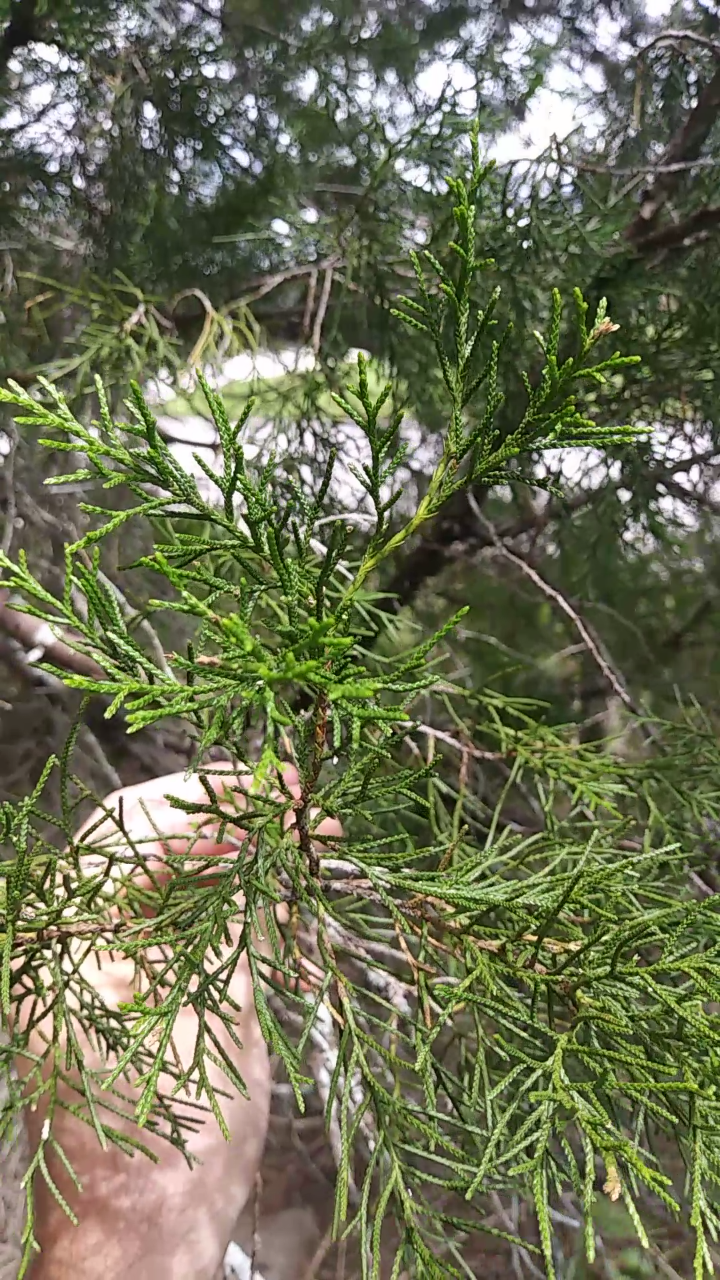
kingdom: Plantae
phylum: Tracheophyta
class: Pinopsida
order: Pinales
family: Cupressaceae
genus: Juniperus
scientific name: Juniperus virginiana
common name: Red juniper
